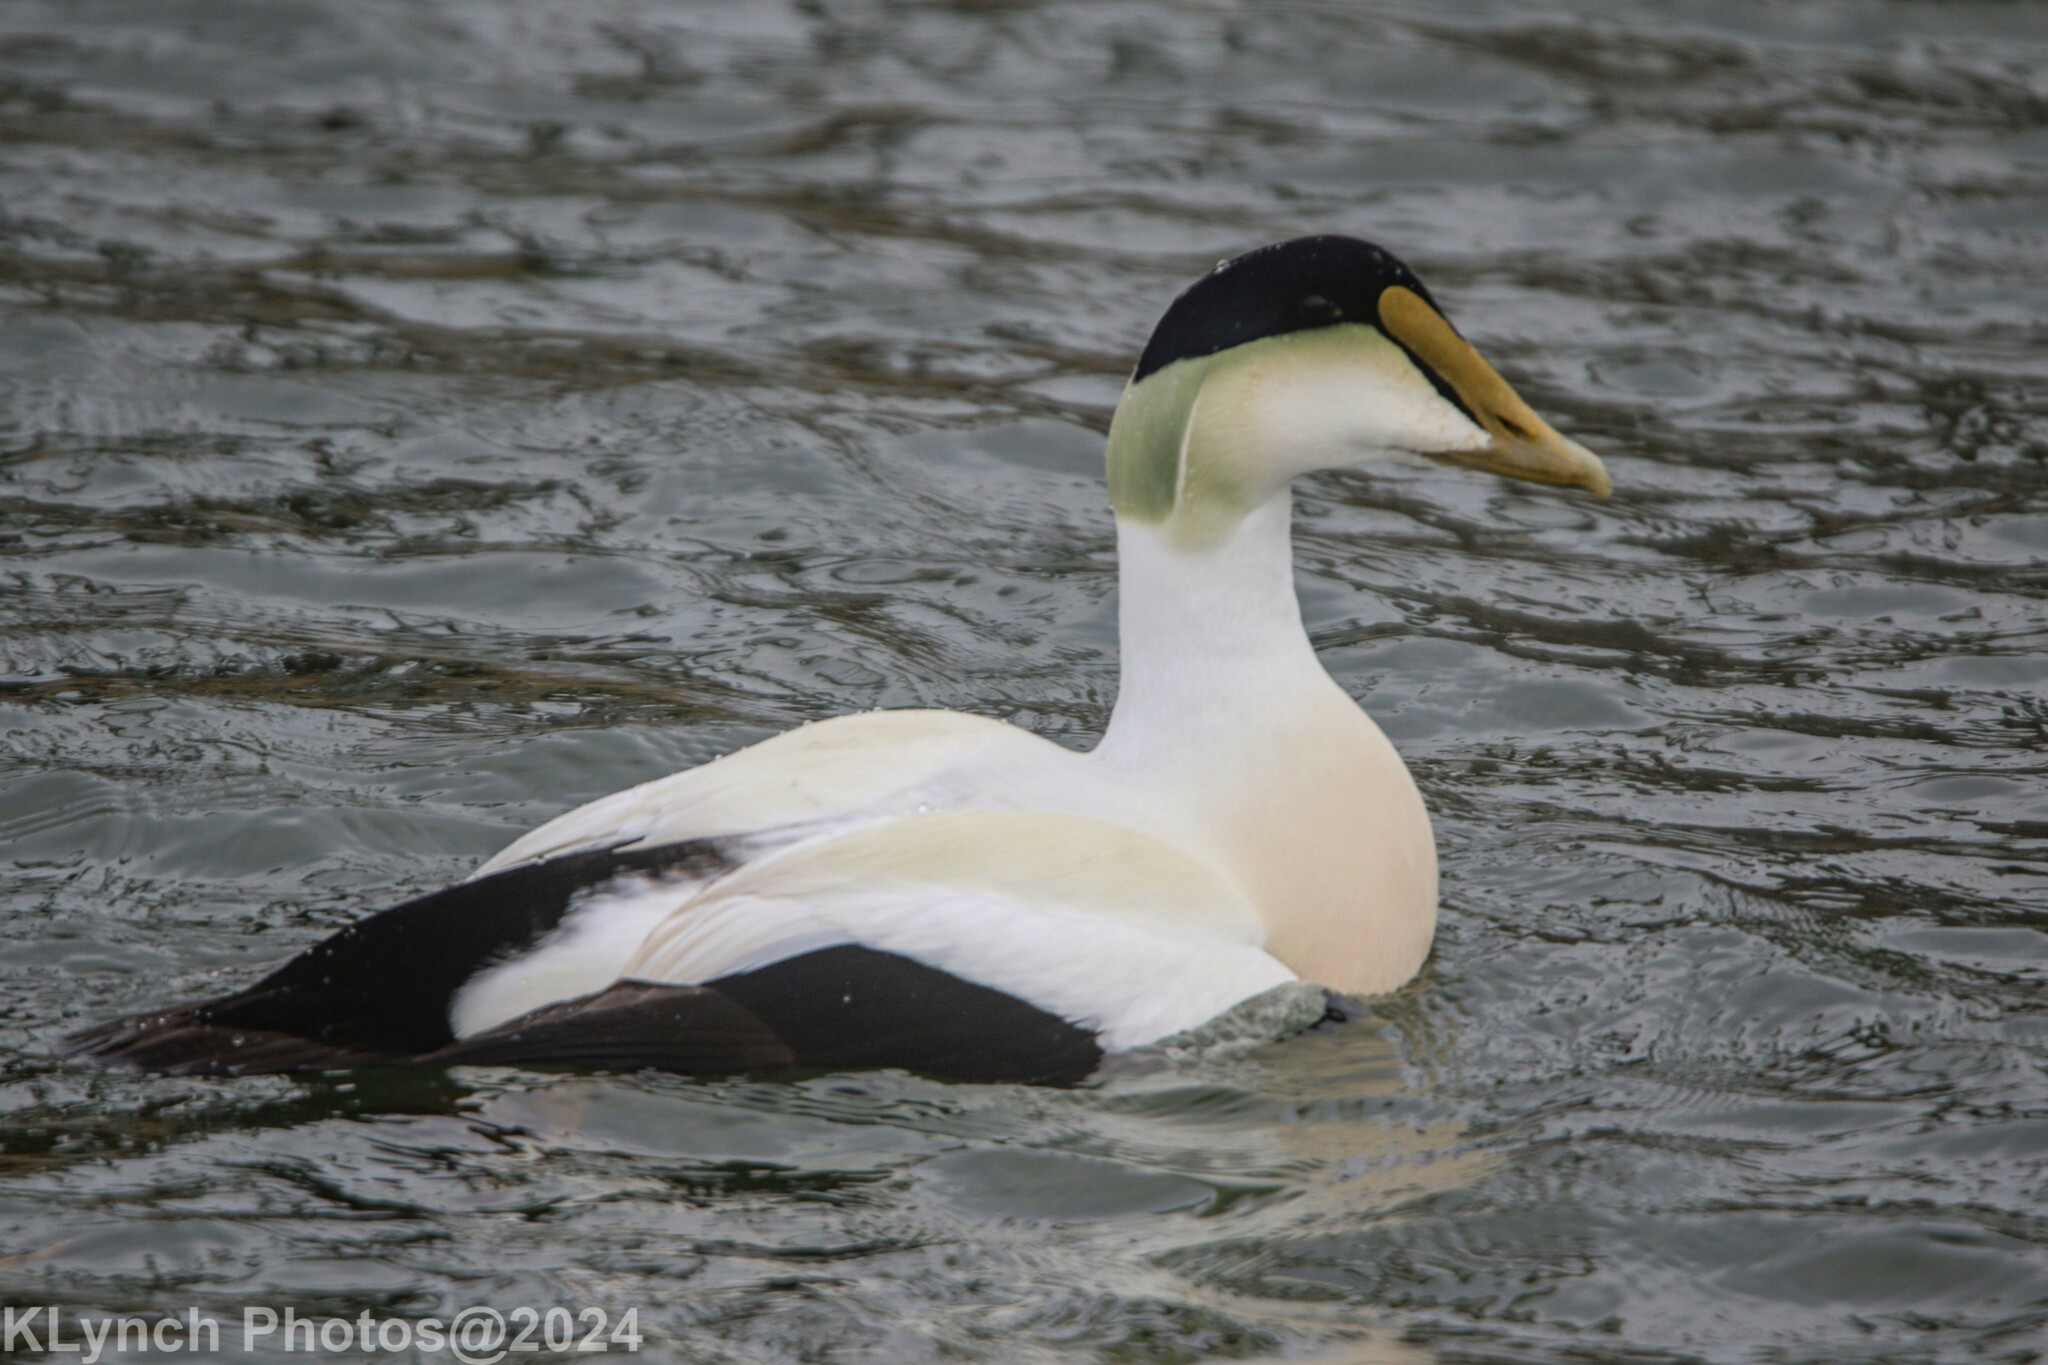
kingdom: Animalia
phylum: Chordata
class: Aves
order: Anseriformes
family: Anatidae
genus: Somateria
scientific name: Somateria mollissima
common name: Common eider
